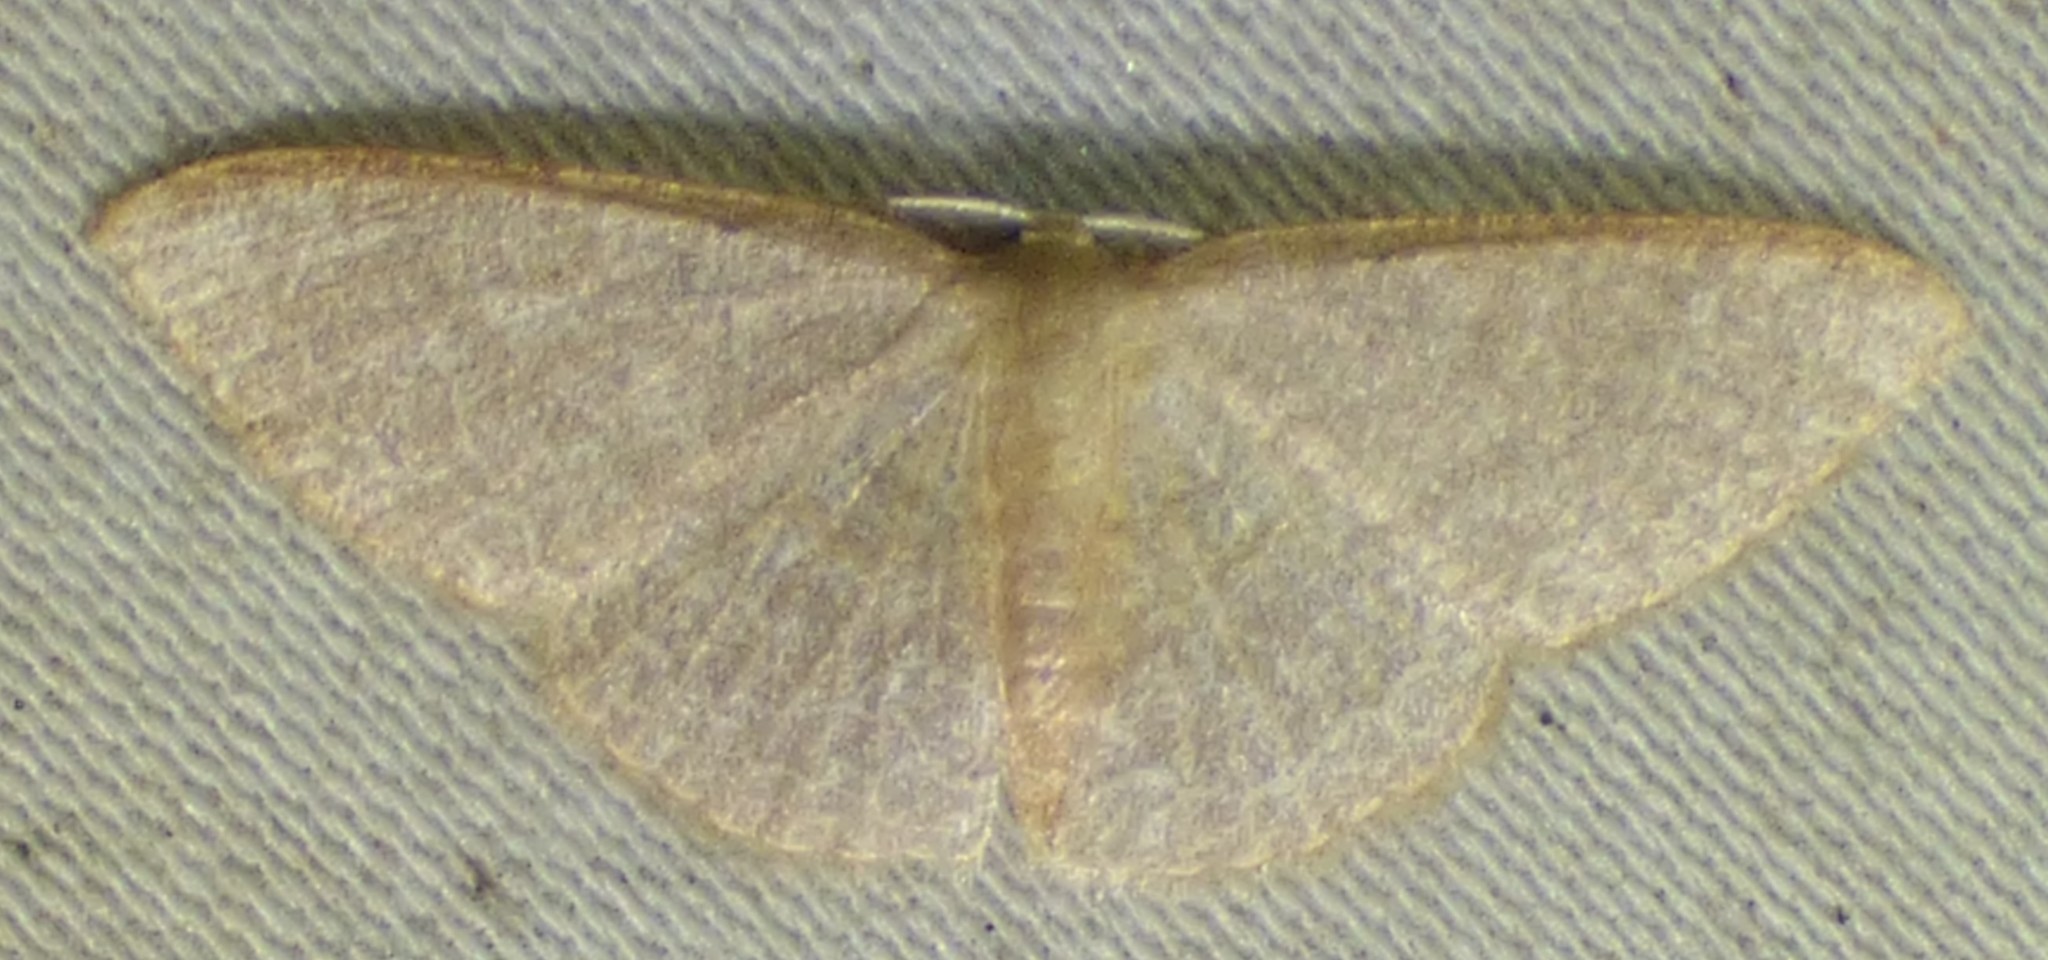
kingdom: Animalia
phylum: Arthropoda
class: Insecta
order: Lepidoptera
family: Geometridae
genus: Pleuroprucha
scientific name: Pleuroprucha insulsaria
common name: Common tan wave
